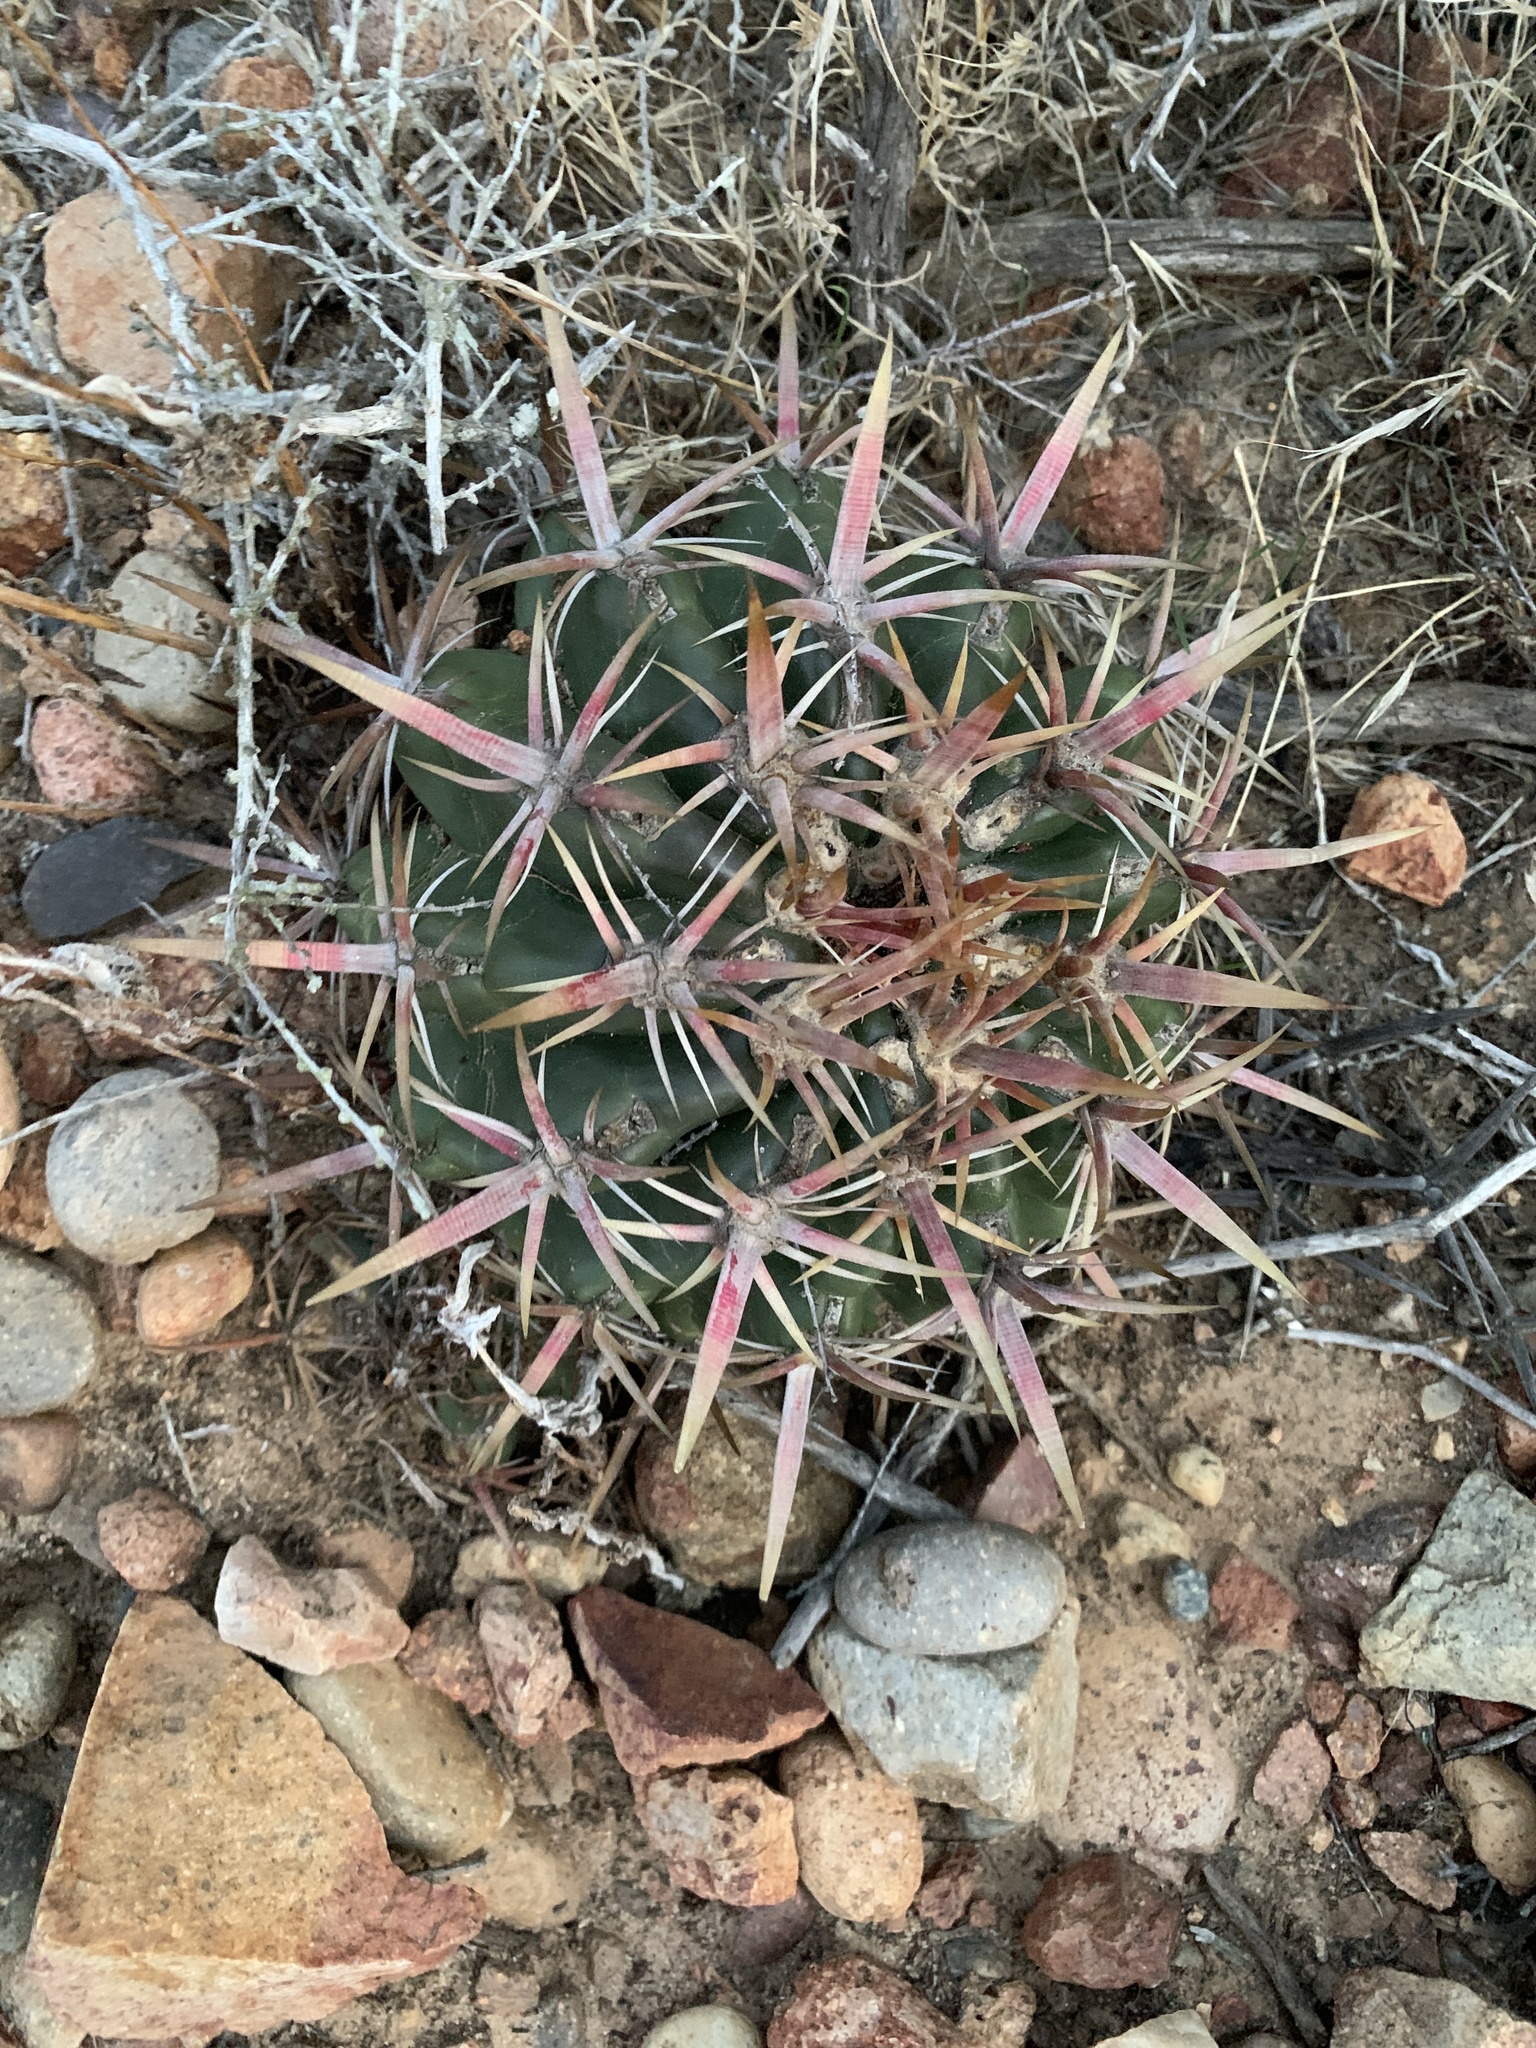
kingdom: Plantae
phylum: Tracheophyta
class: Magnoliopsida
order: Caryophyllales
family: Cactaceae
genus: Ferocactus
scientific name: Ferocactus viridescens
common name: San diego barrel cactus
